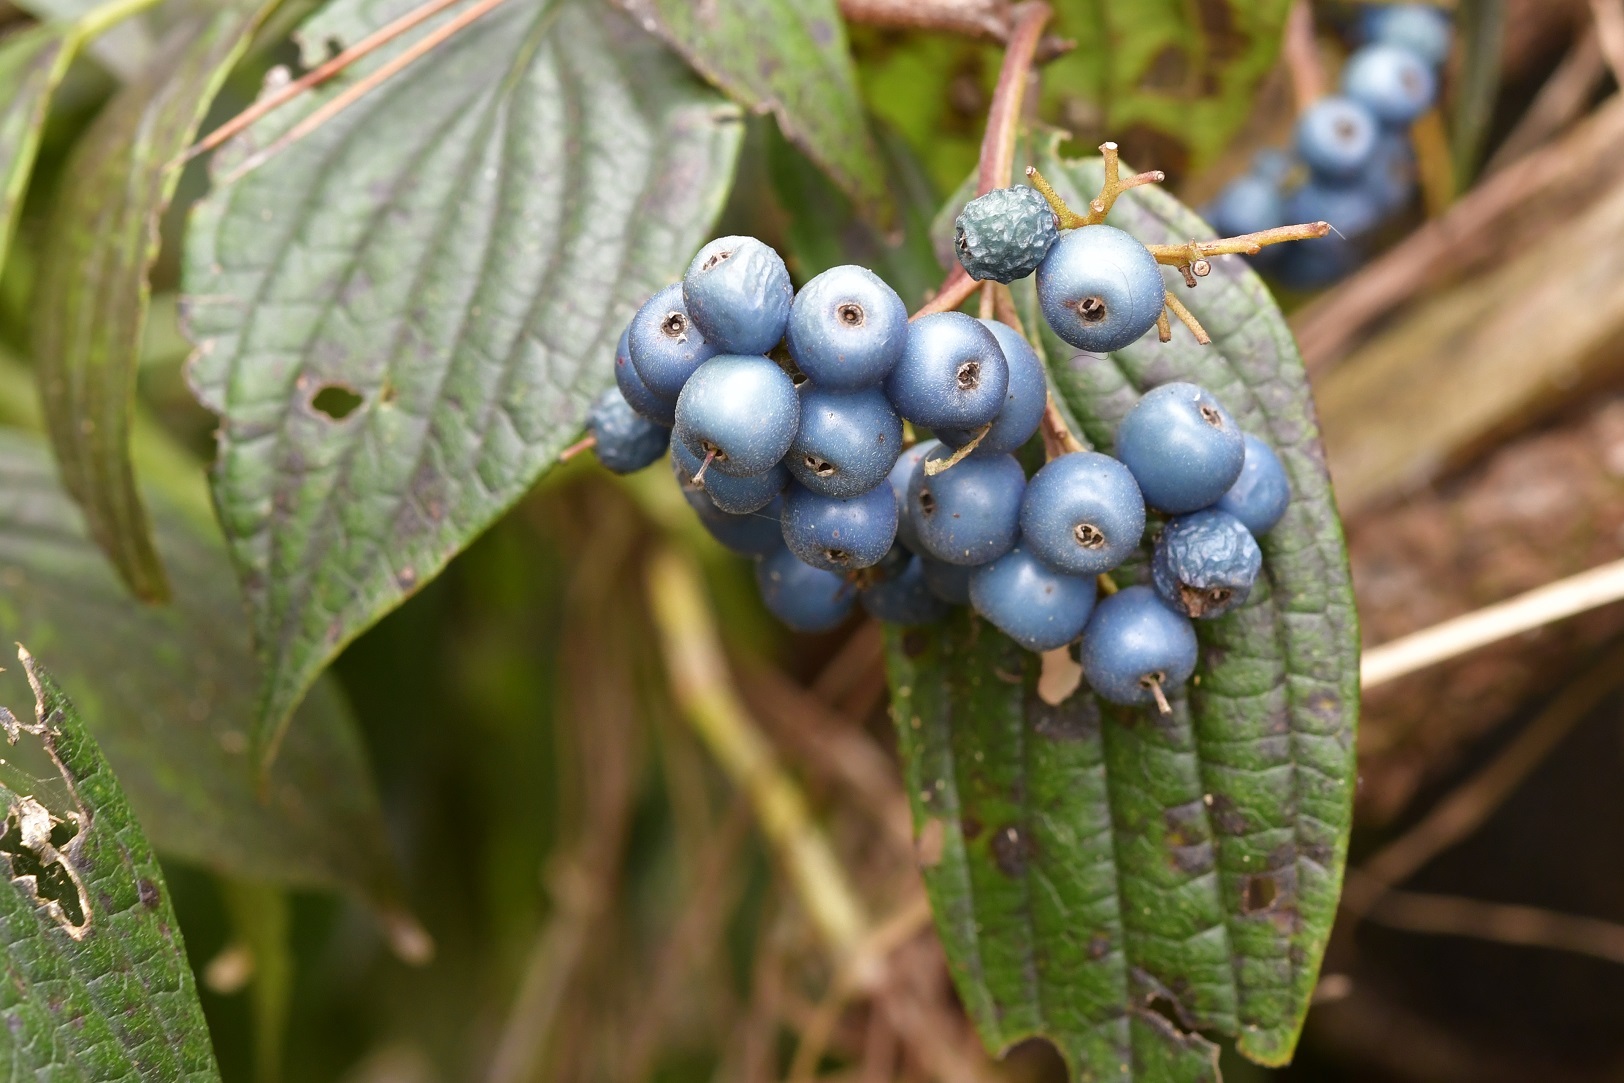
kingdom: Plantae
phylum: Tracheophyta
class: Magnoliopsida
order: Cornales
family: Cornaceae
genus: Cornus
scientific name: Cornus excelsa
